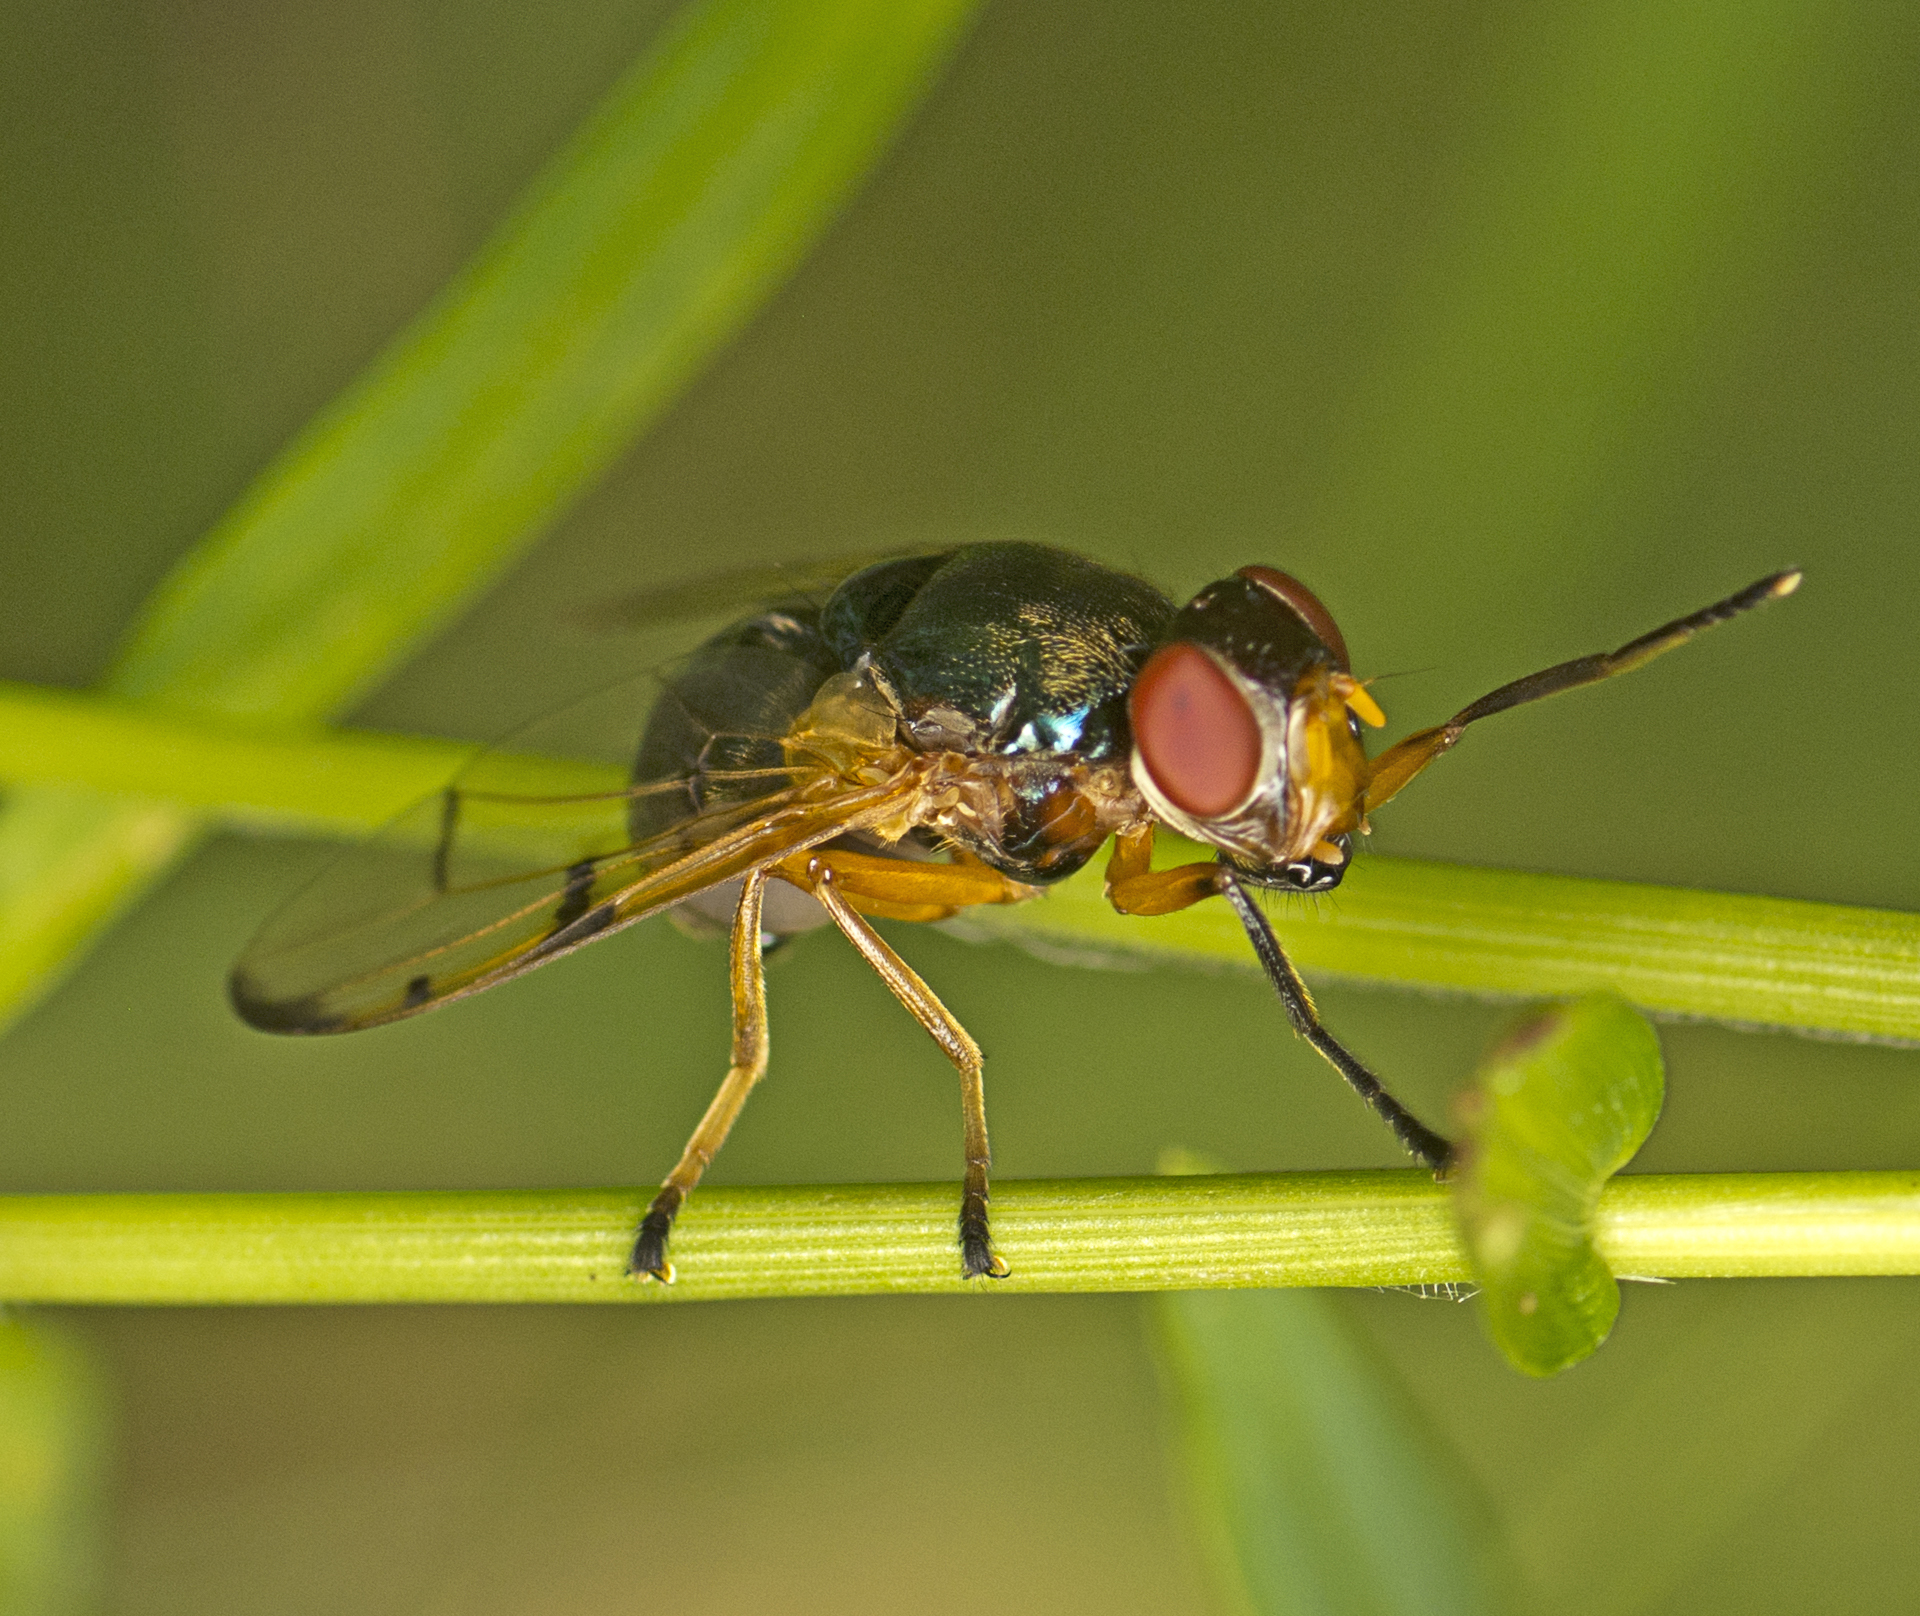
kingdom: Animalia
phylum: Arthropoda
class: Insecta
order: Diptera
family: Platystomatidae
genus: Lamprogaster
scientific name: Lamprogaster imperialis
